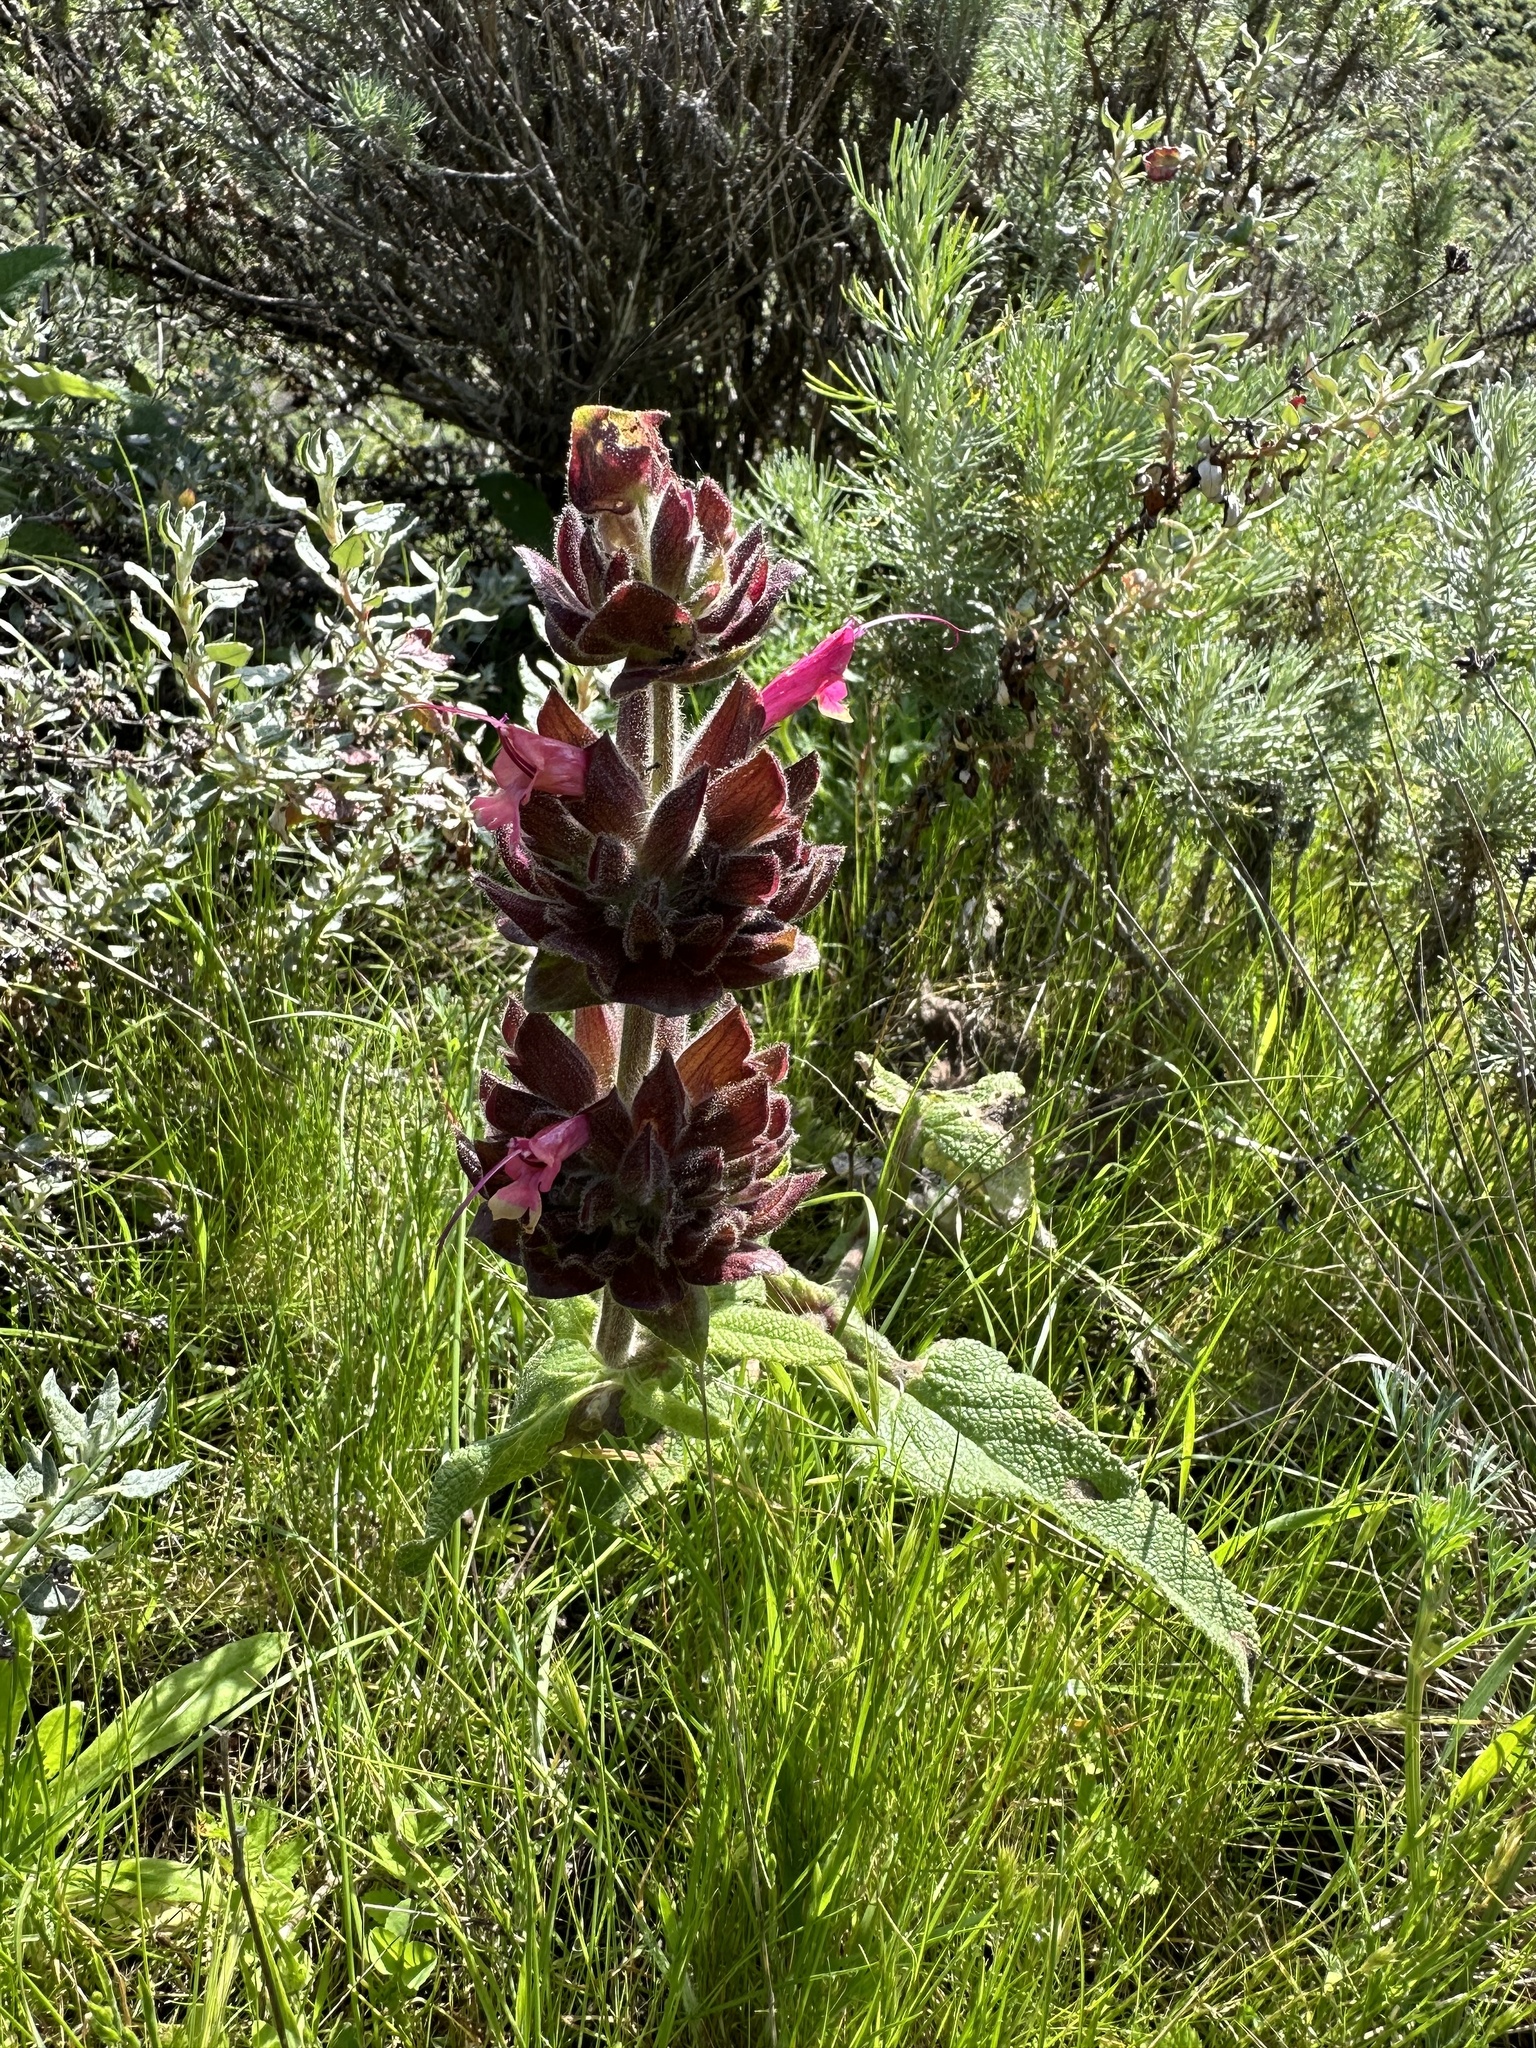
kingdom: Plantae
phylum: Tracheophyta
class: Magnoliopsida
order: Lamiales
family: Lamiaceae
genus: Salvia
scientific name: Salvia spathacea
